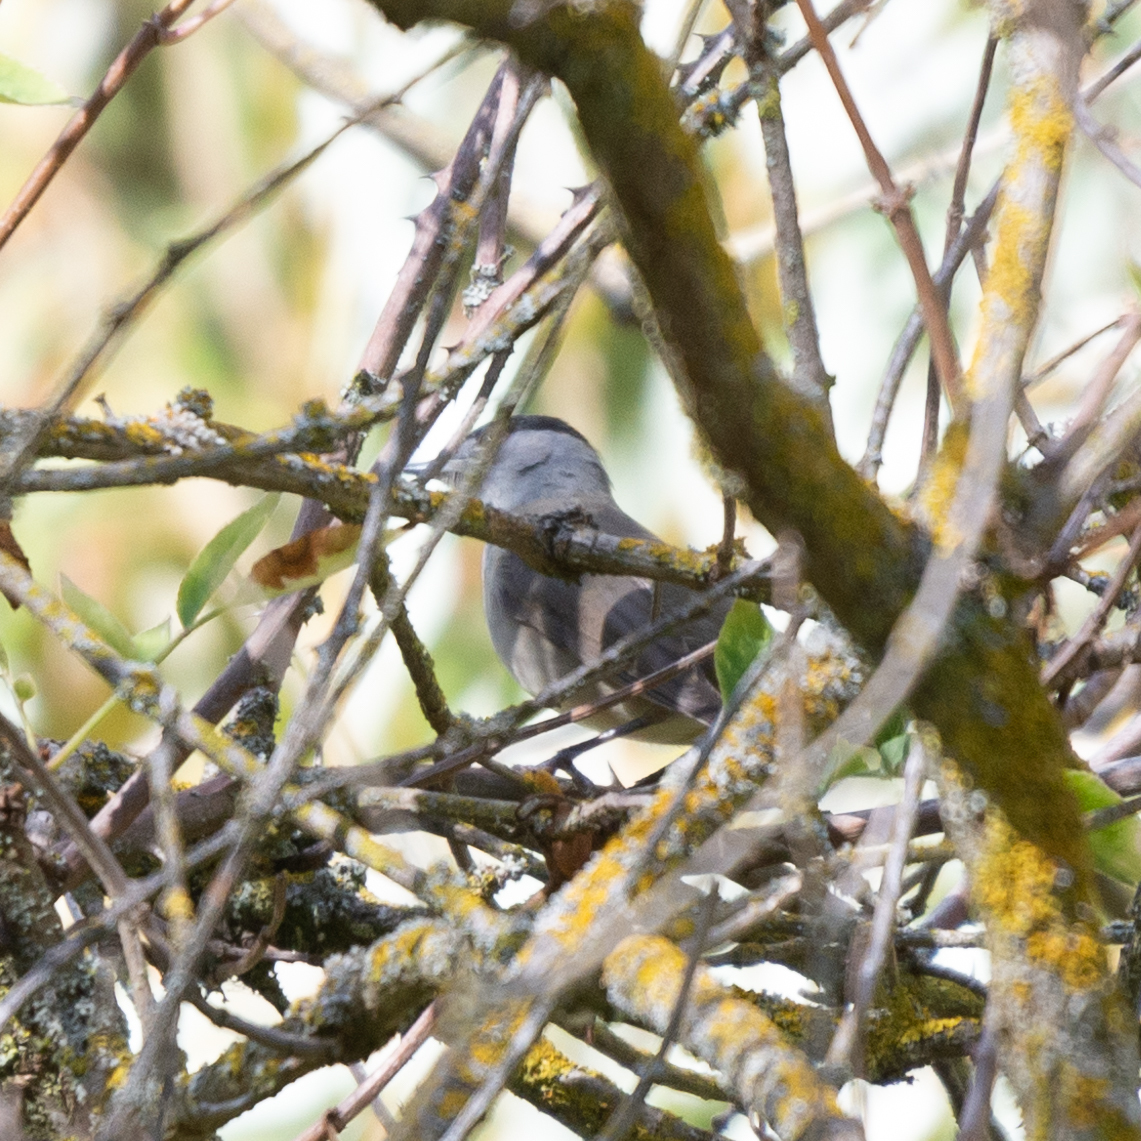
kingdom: Animalia
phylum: Chordata
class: Aves
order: Passeriformes
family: Sylviidae
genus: Sylvia
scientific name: Sylvia atricapilla
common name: Eurasian blackcap
